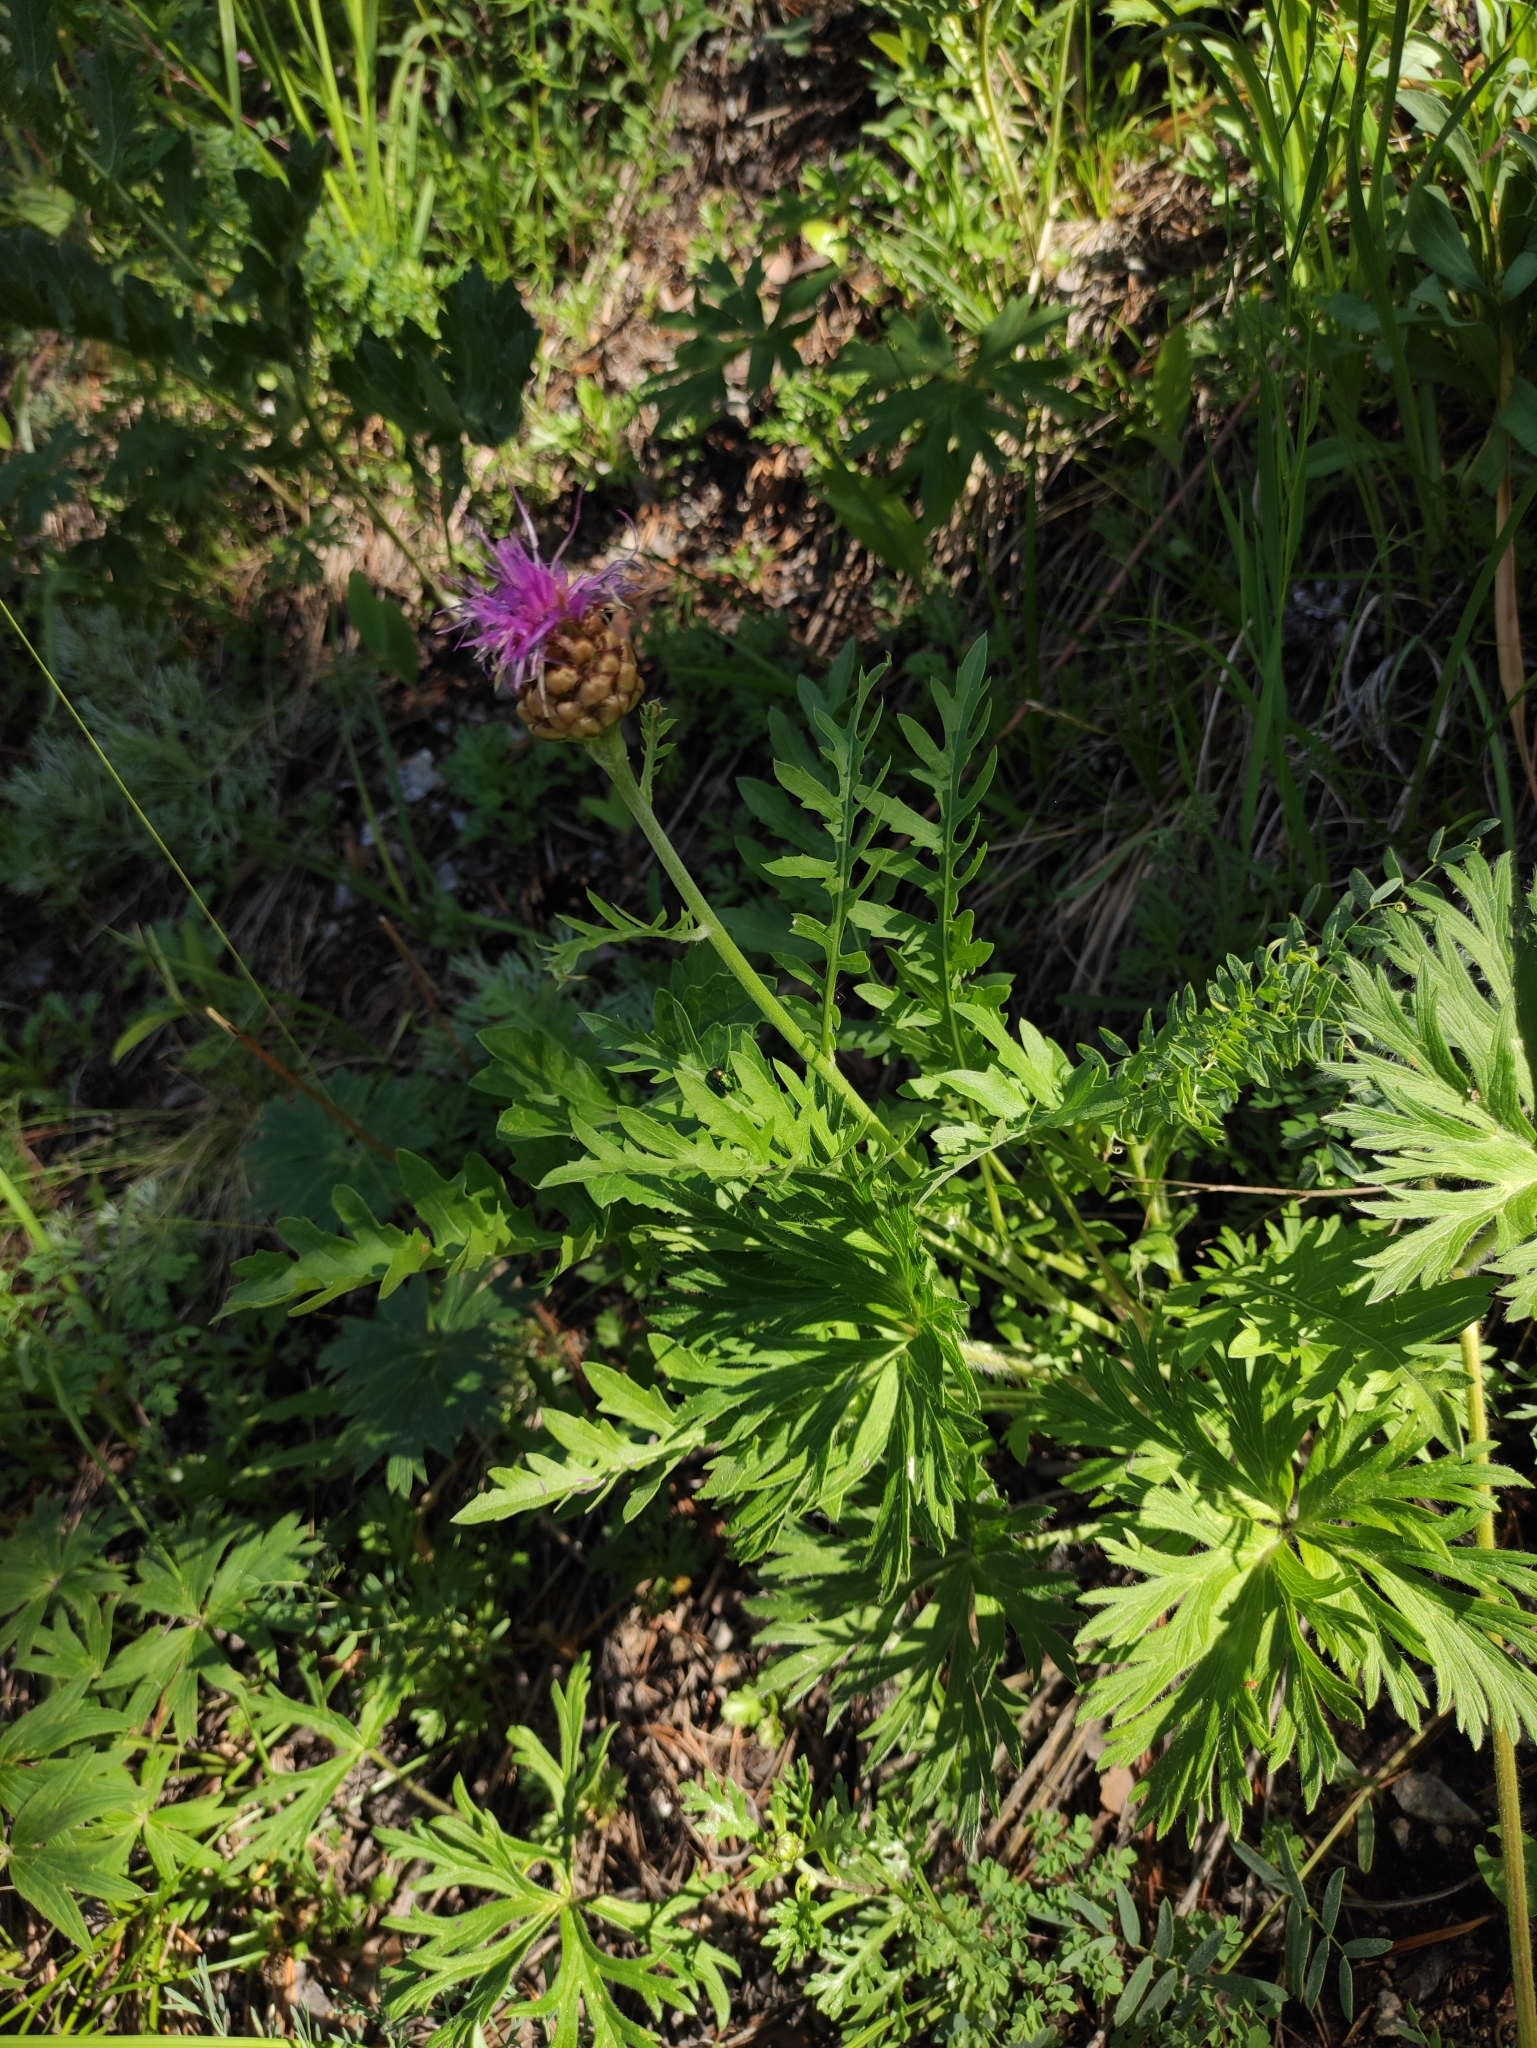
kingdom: Plantae
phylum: Tracheophyta
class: Magnoliopsida
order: Asterales
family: Asteraceae
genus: Leuzea
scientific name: Leuzea uniflora
